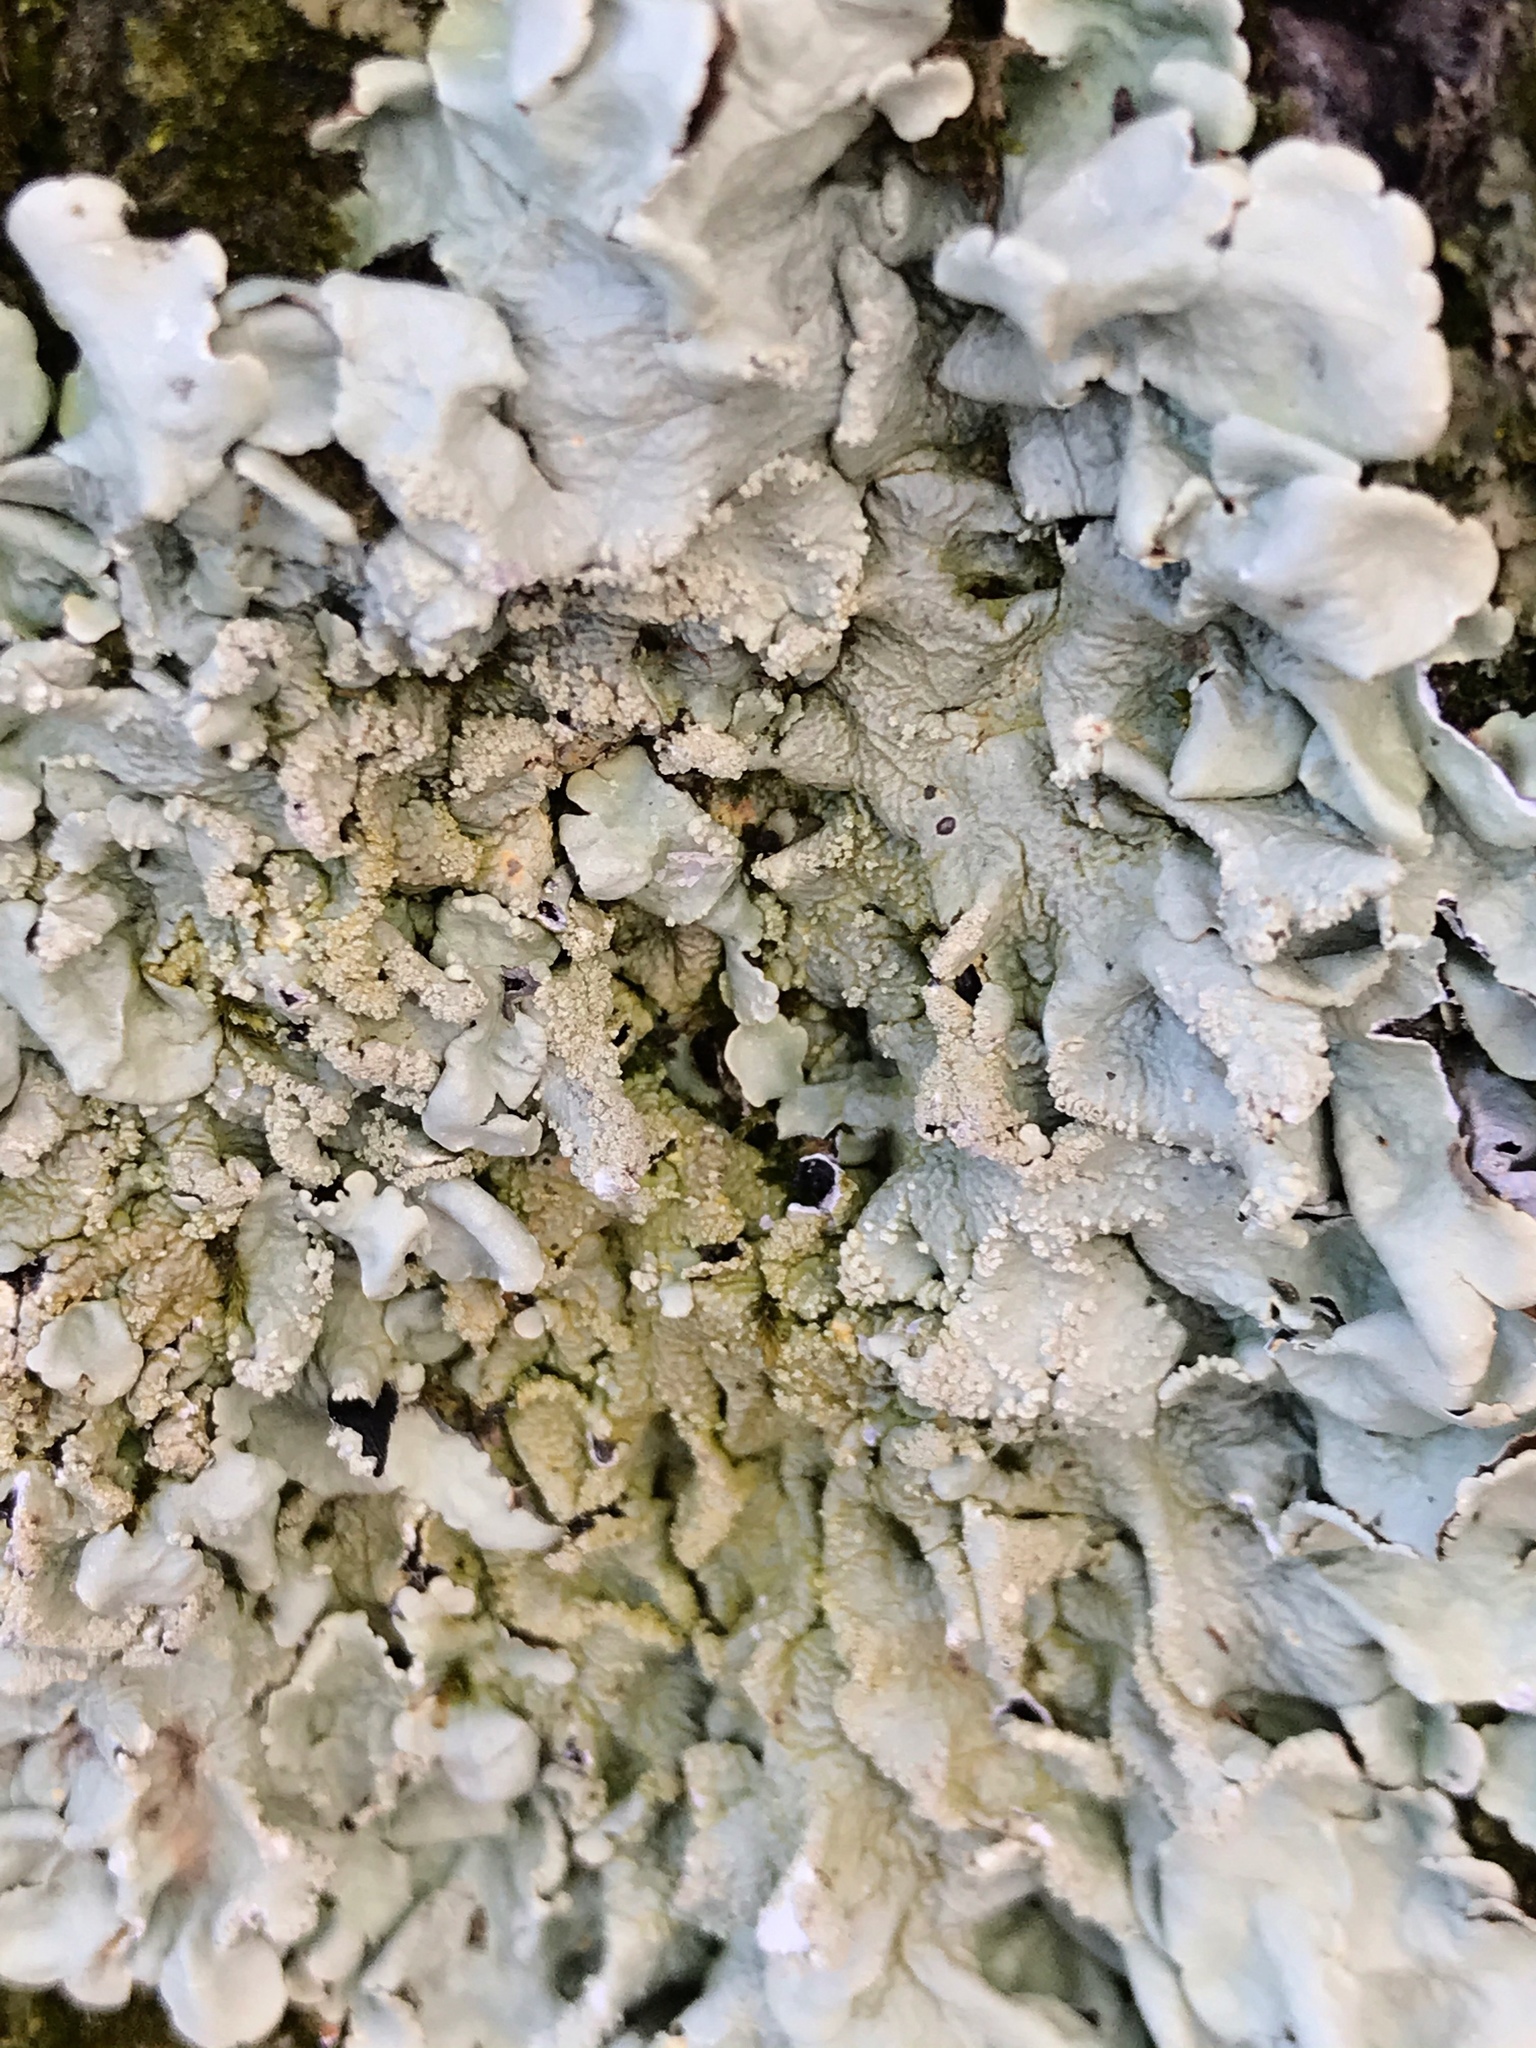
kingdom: Fungi
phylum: Ascomycota
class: Lecanoromycetes
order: Lecanorales
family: Parmeliaceae
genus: Flavoparmelia
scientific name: Flavoparmelia caperata
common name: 40-mile per hour lichen
